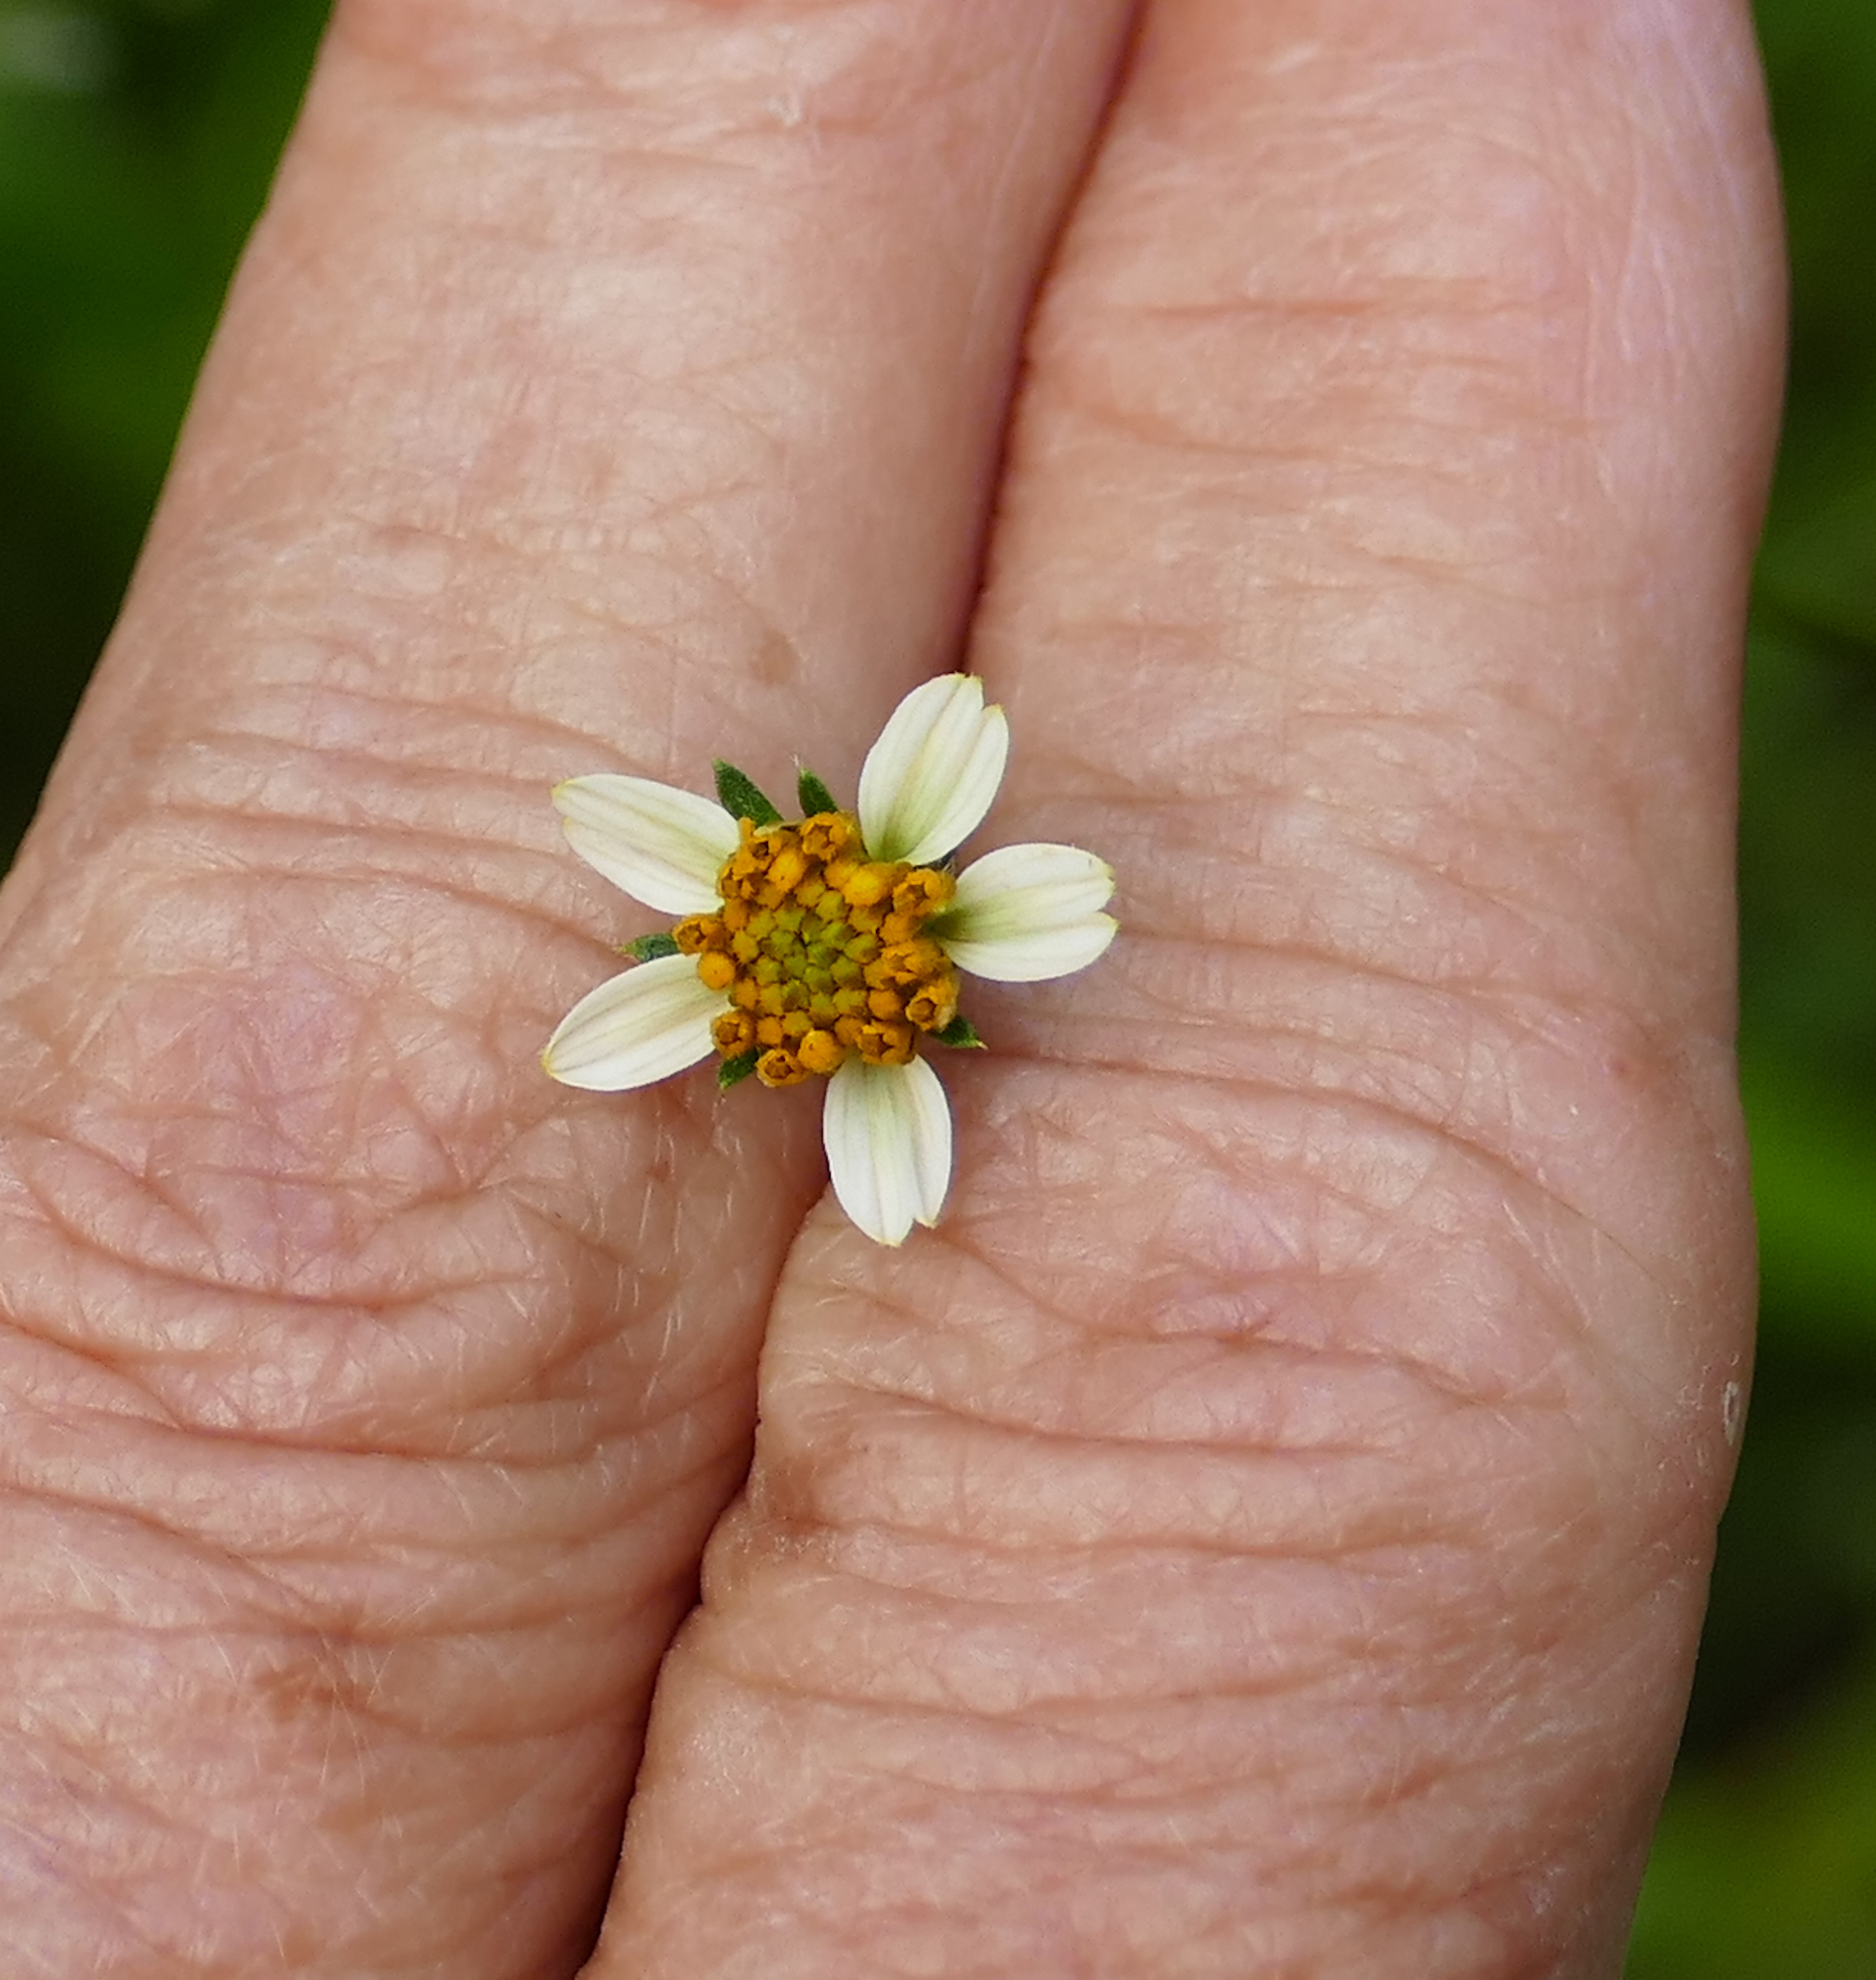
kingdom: Plantae
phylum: Tracheophyta
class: Magnoliopsida
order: Asterales
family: Asteraceae
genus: Bidens
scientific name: Bidens bigelovii
